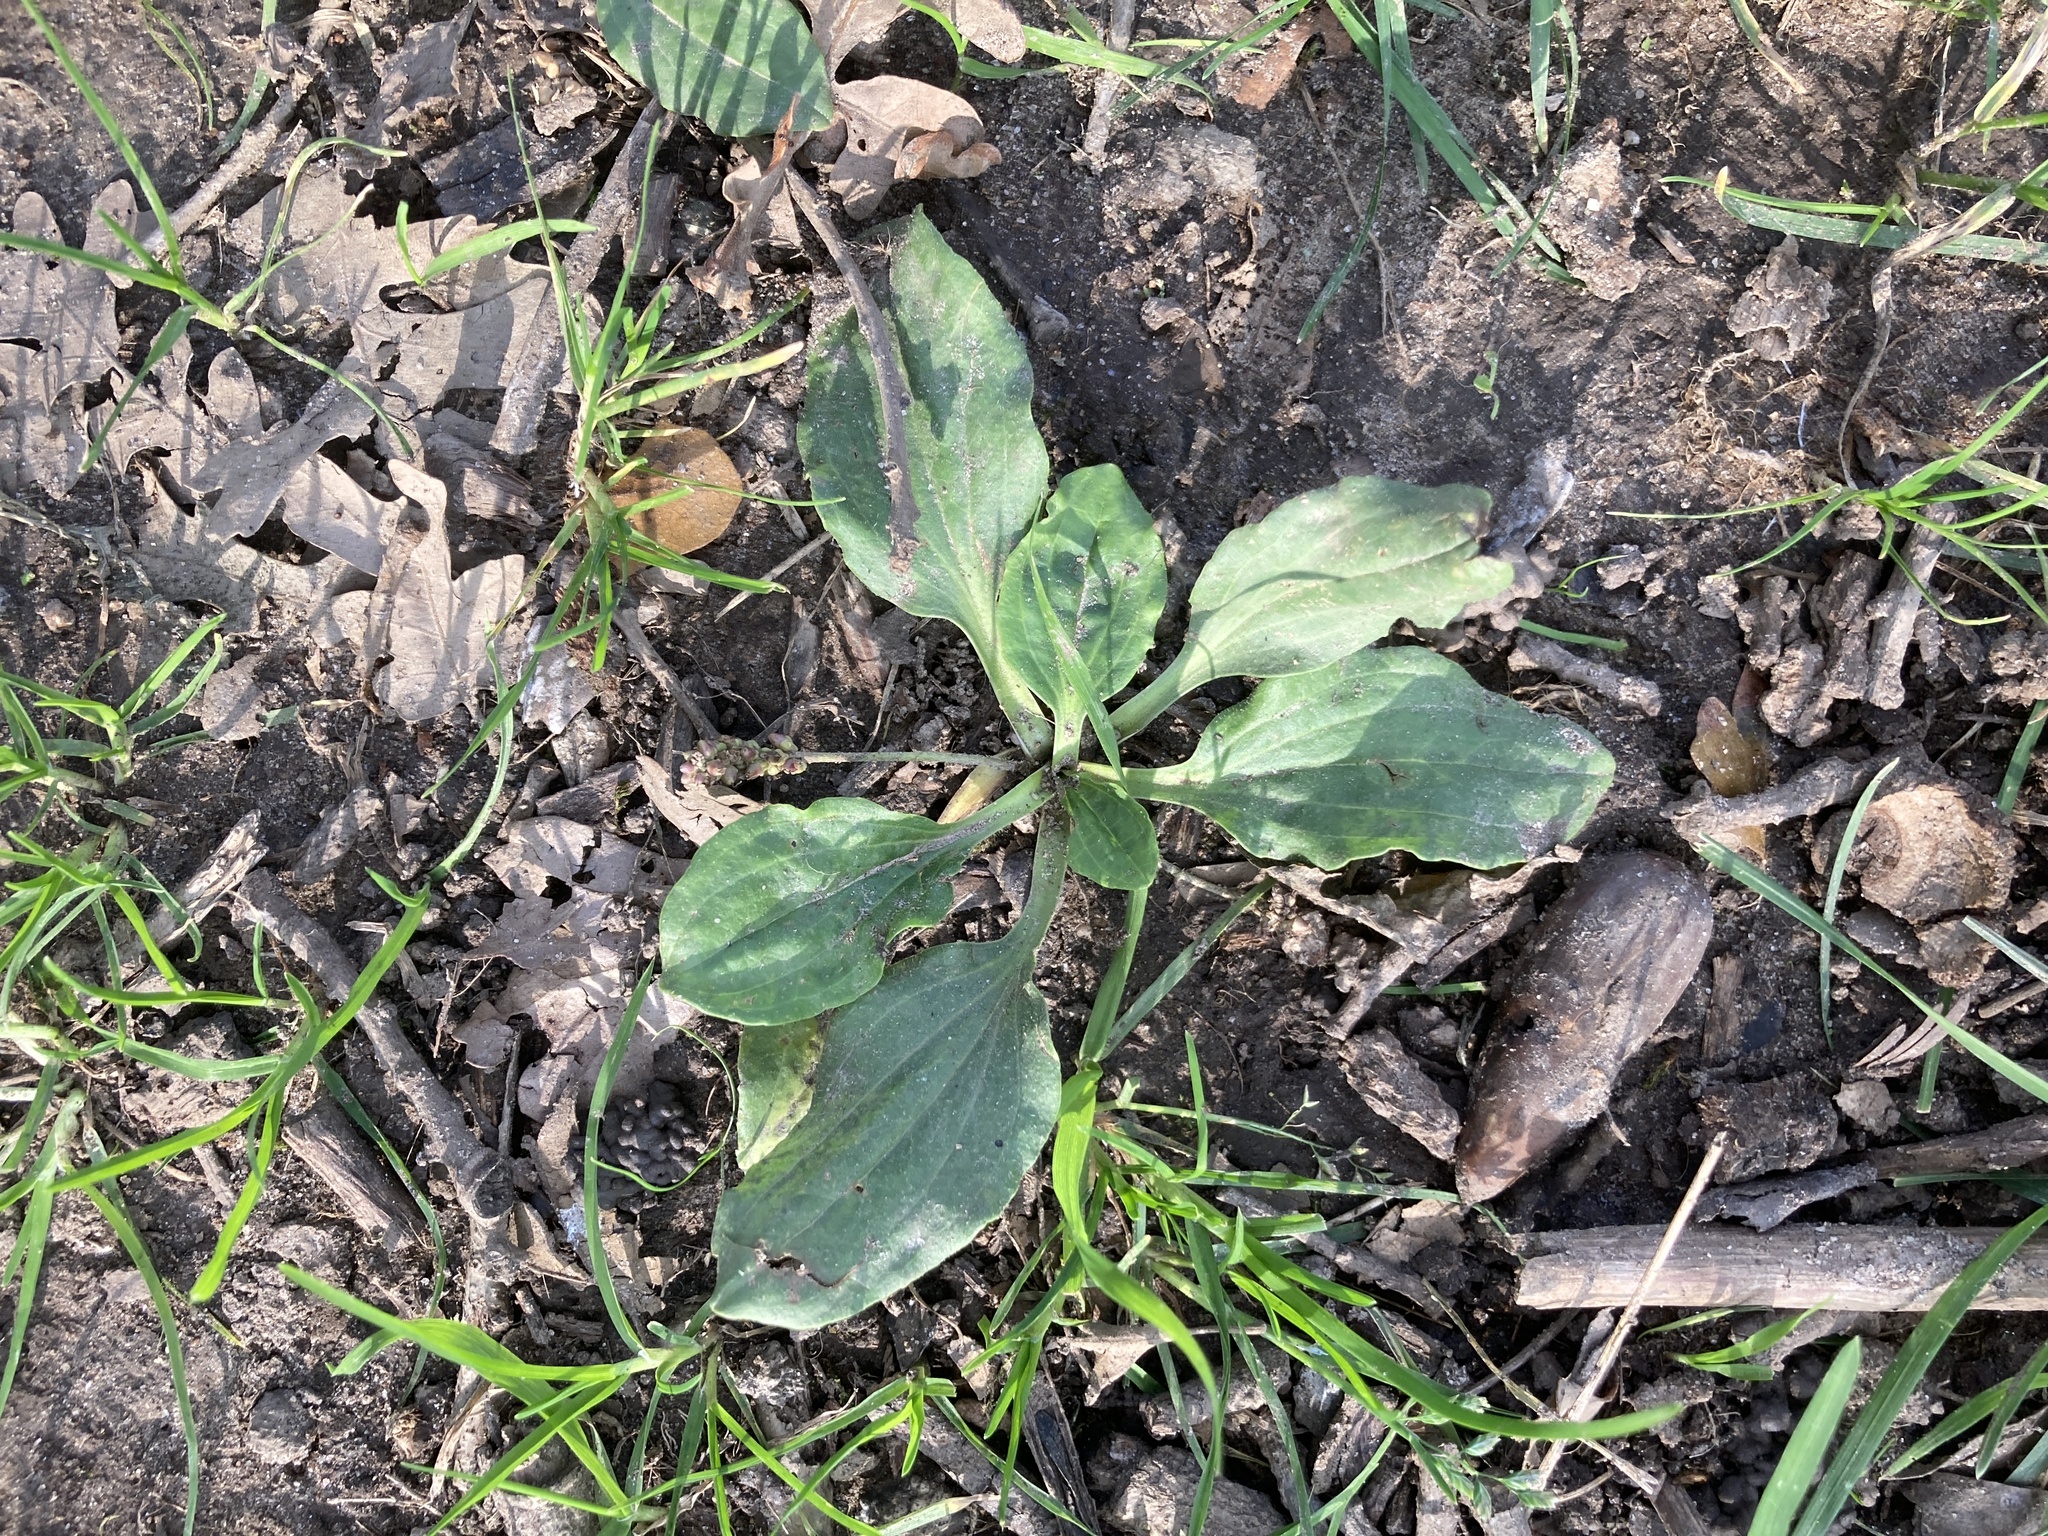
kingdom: Plantae
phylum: Tracheophyta
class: Magnoliopsida
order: Lamiales
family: Plantaginaceae
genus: Plantago
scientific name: Plantago major
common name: Common plantain
